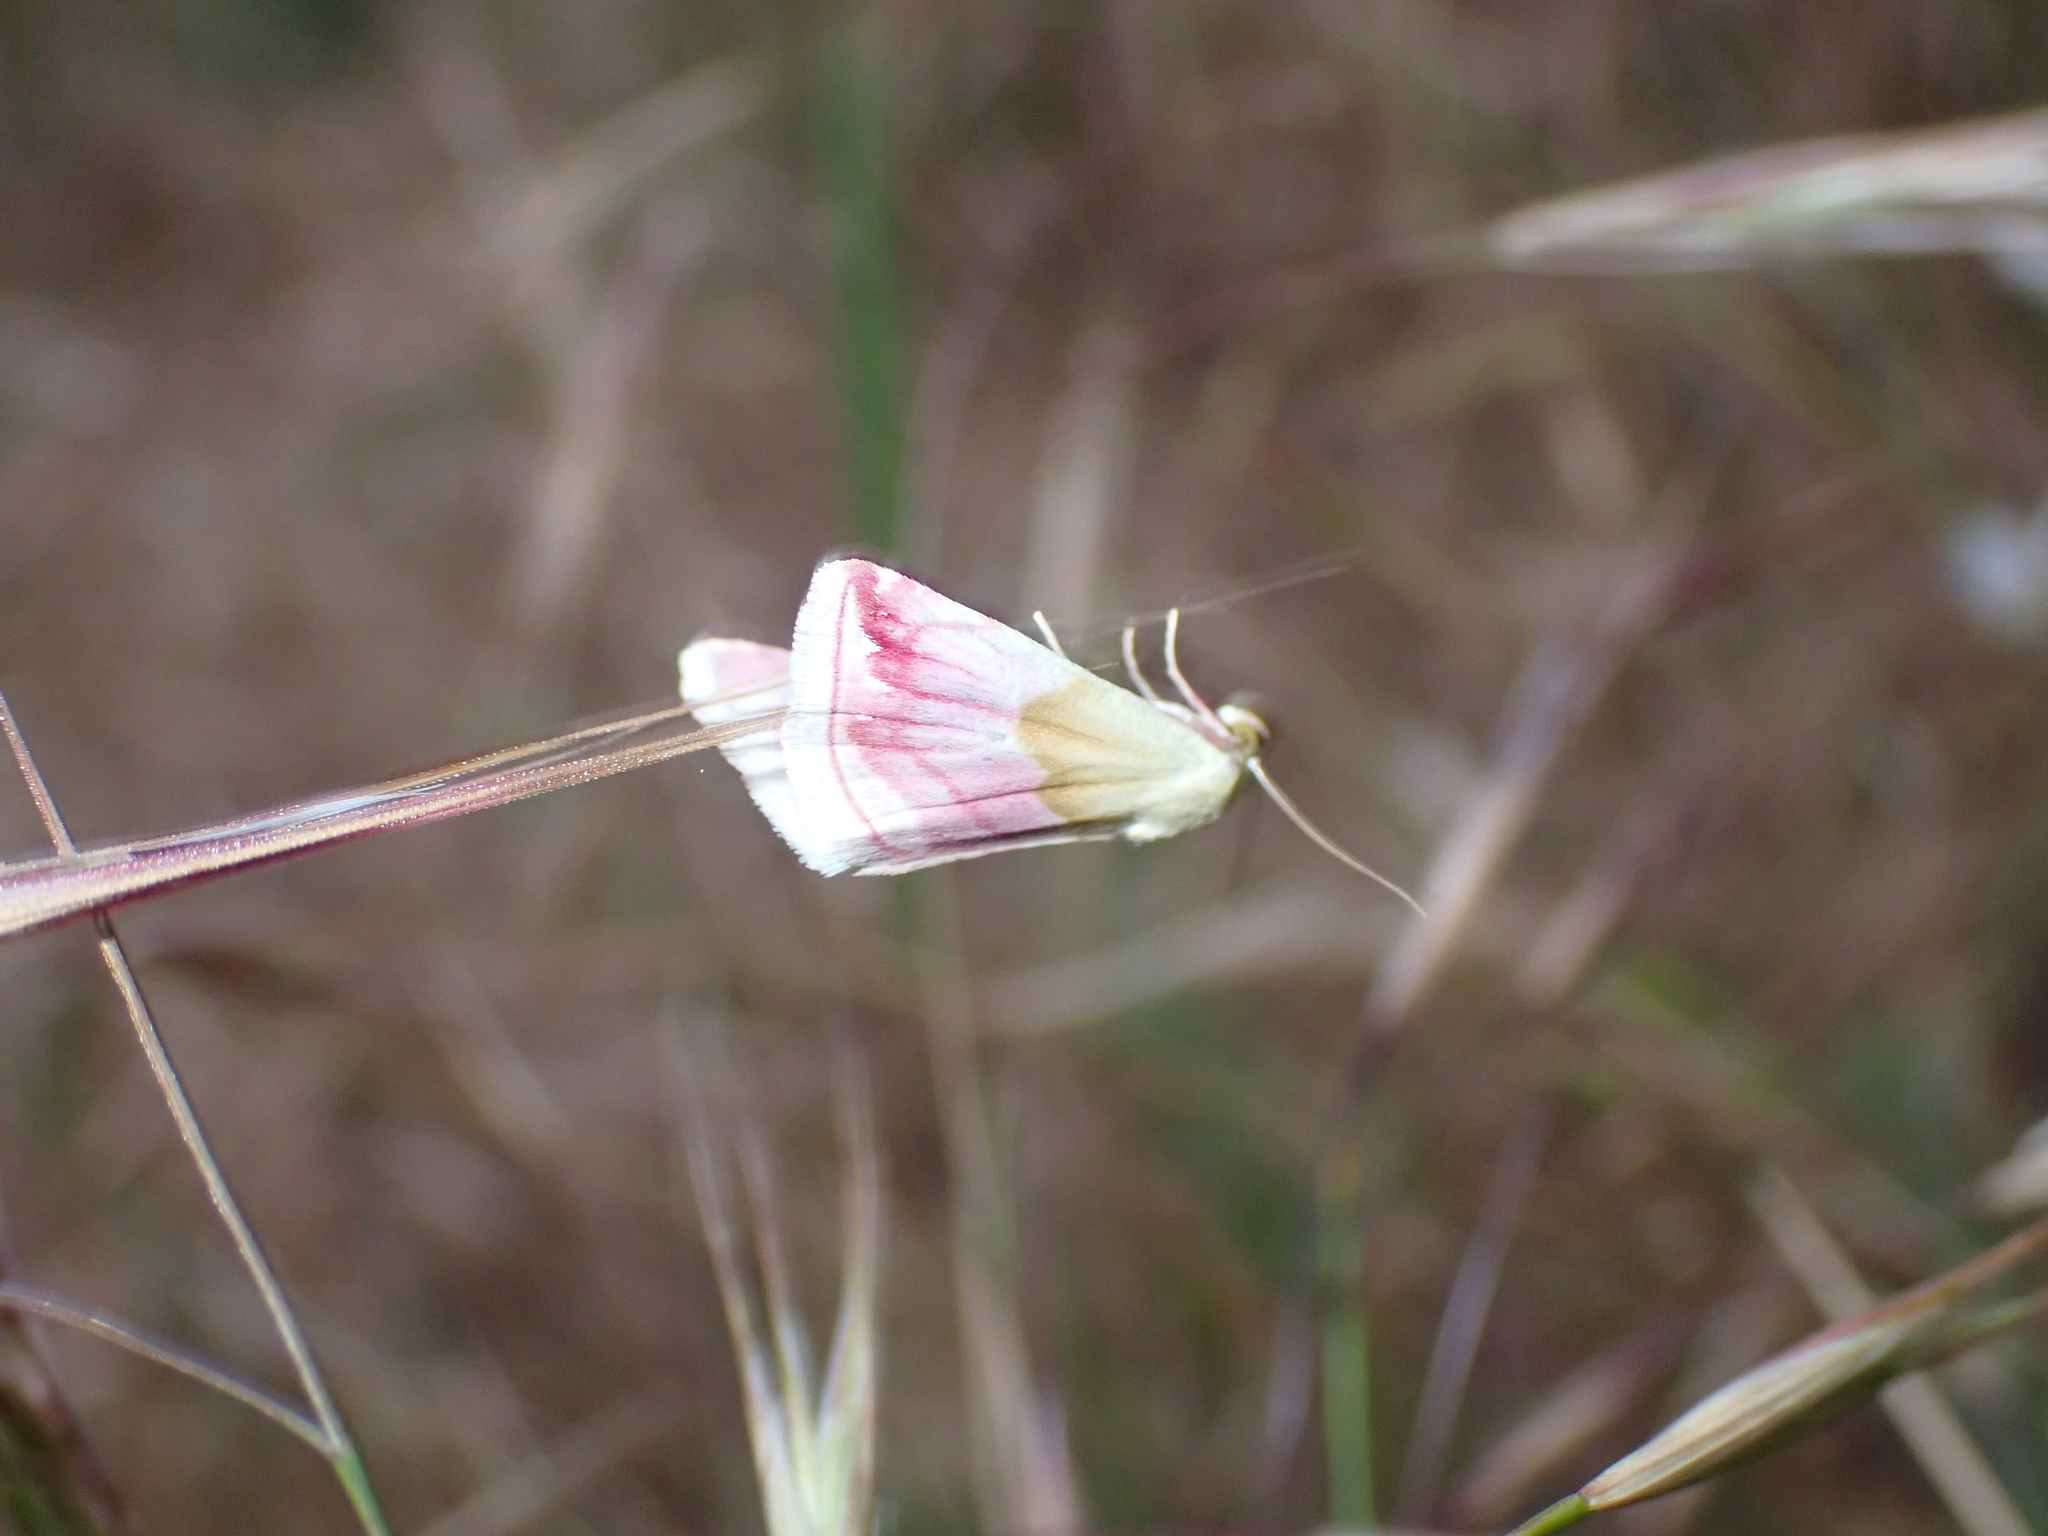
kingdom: Animalia
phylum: Arthropoda
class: Insecta
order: Lepidoptera
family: Noctuidae
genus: Eublemma
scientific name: Eublemma purpurina
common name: Beautiful marbled
